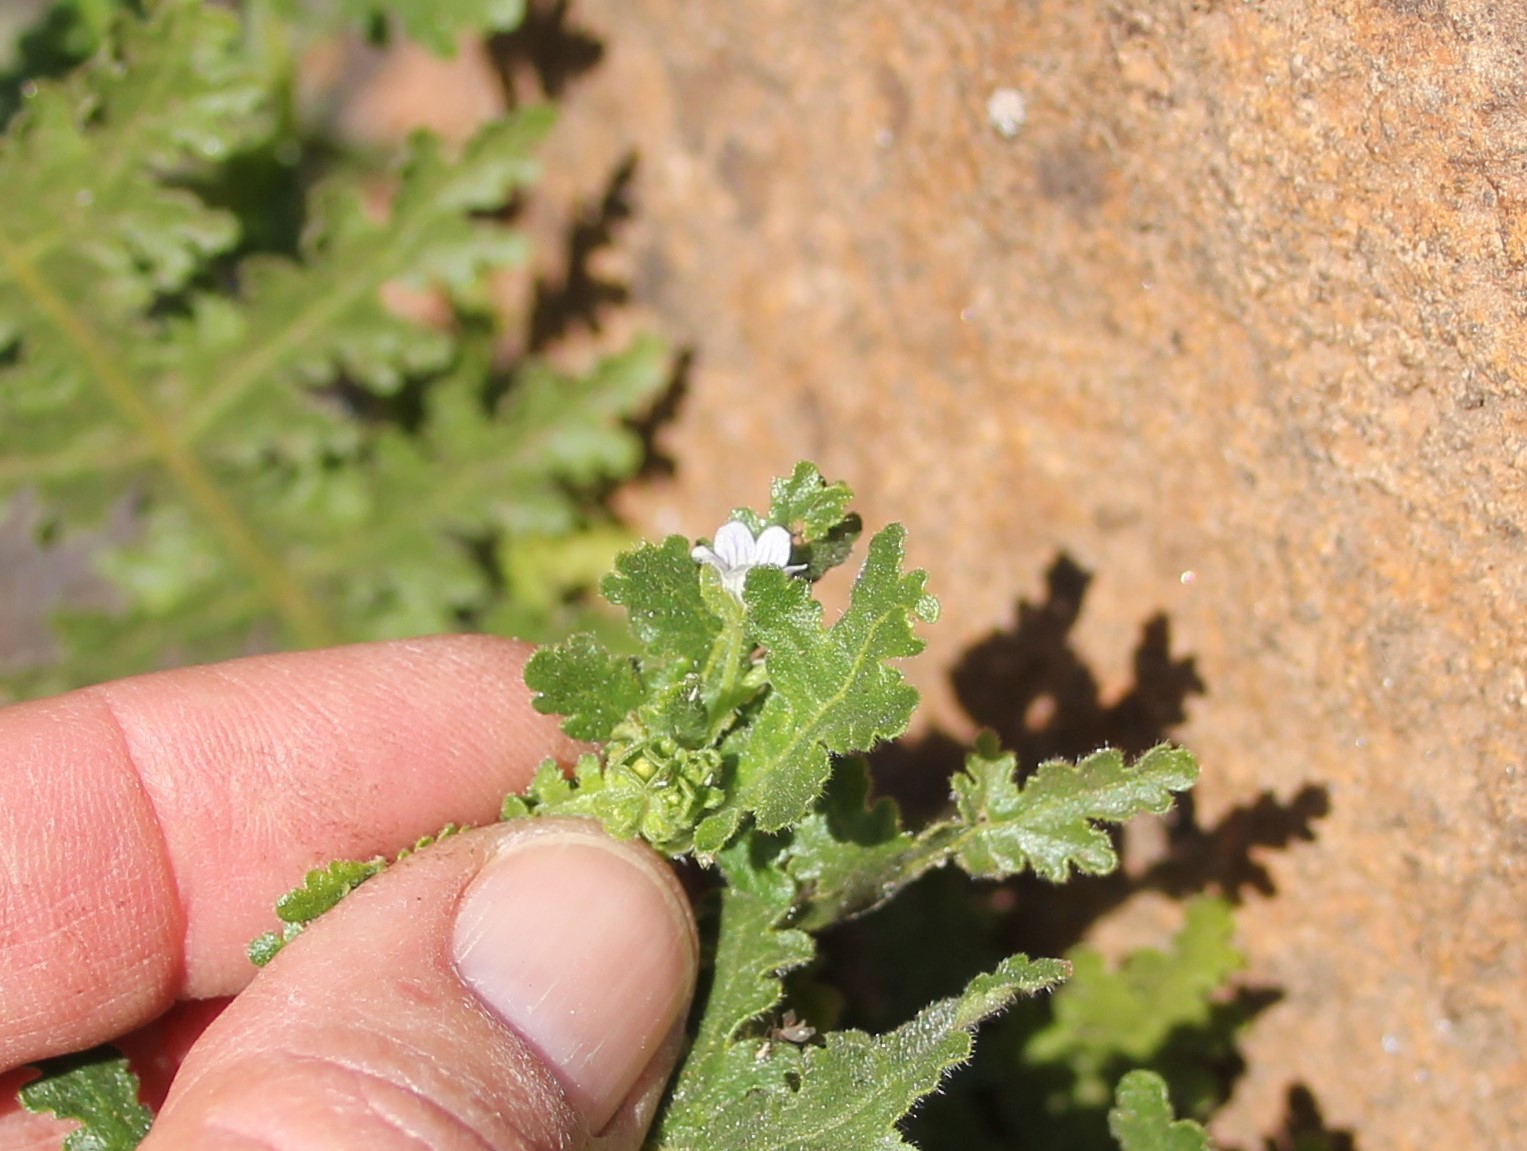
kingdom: Plantae
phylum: Tracheophyta
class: Magnoliopsida
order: Boraginales
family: Hydrophyllaceae
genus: Eucrypta
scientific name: Eucrypta chrysanthemifolia
